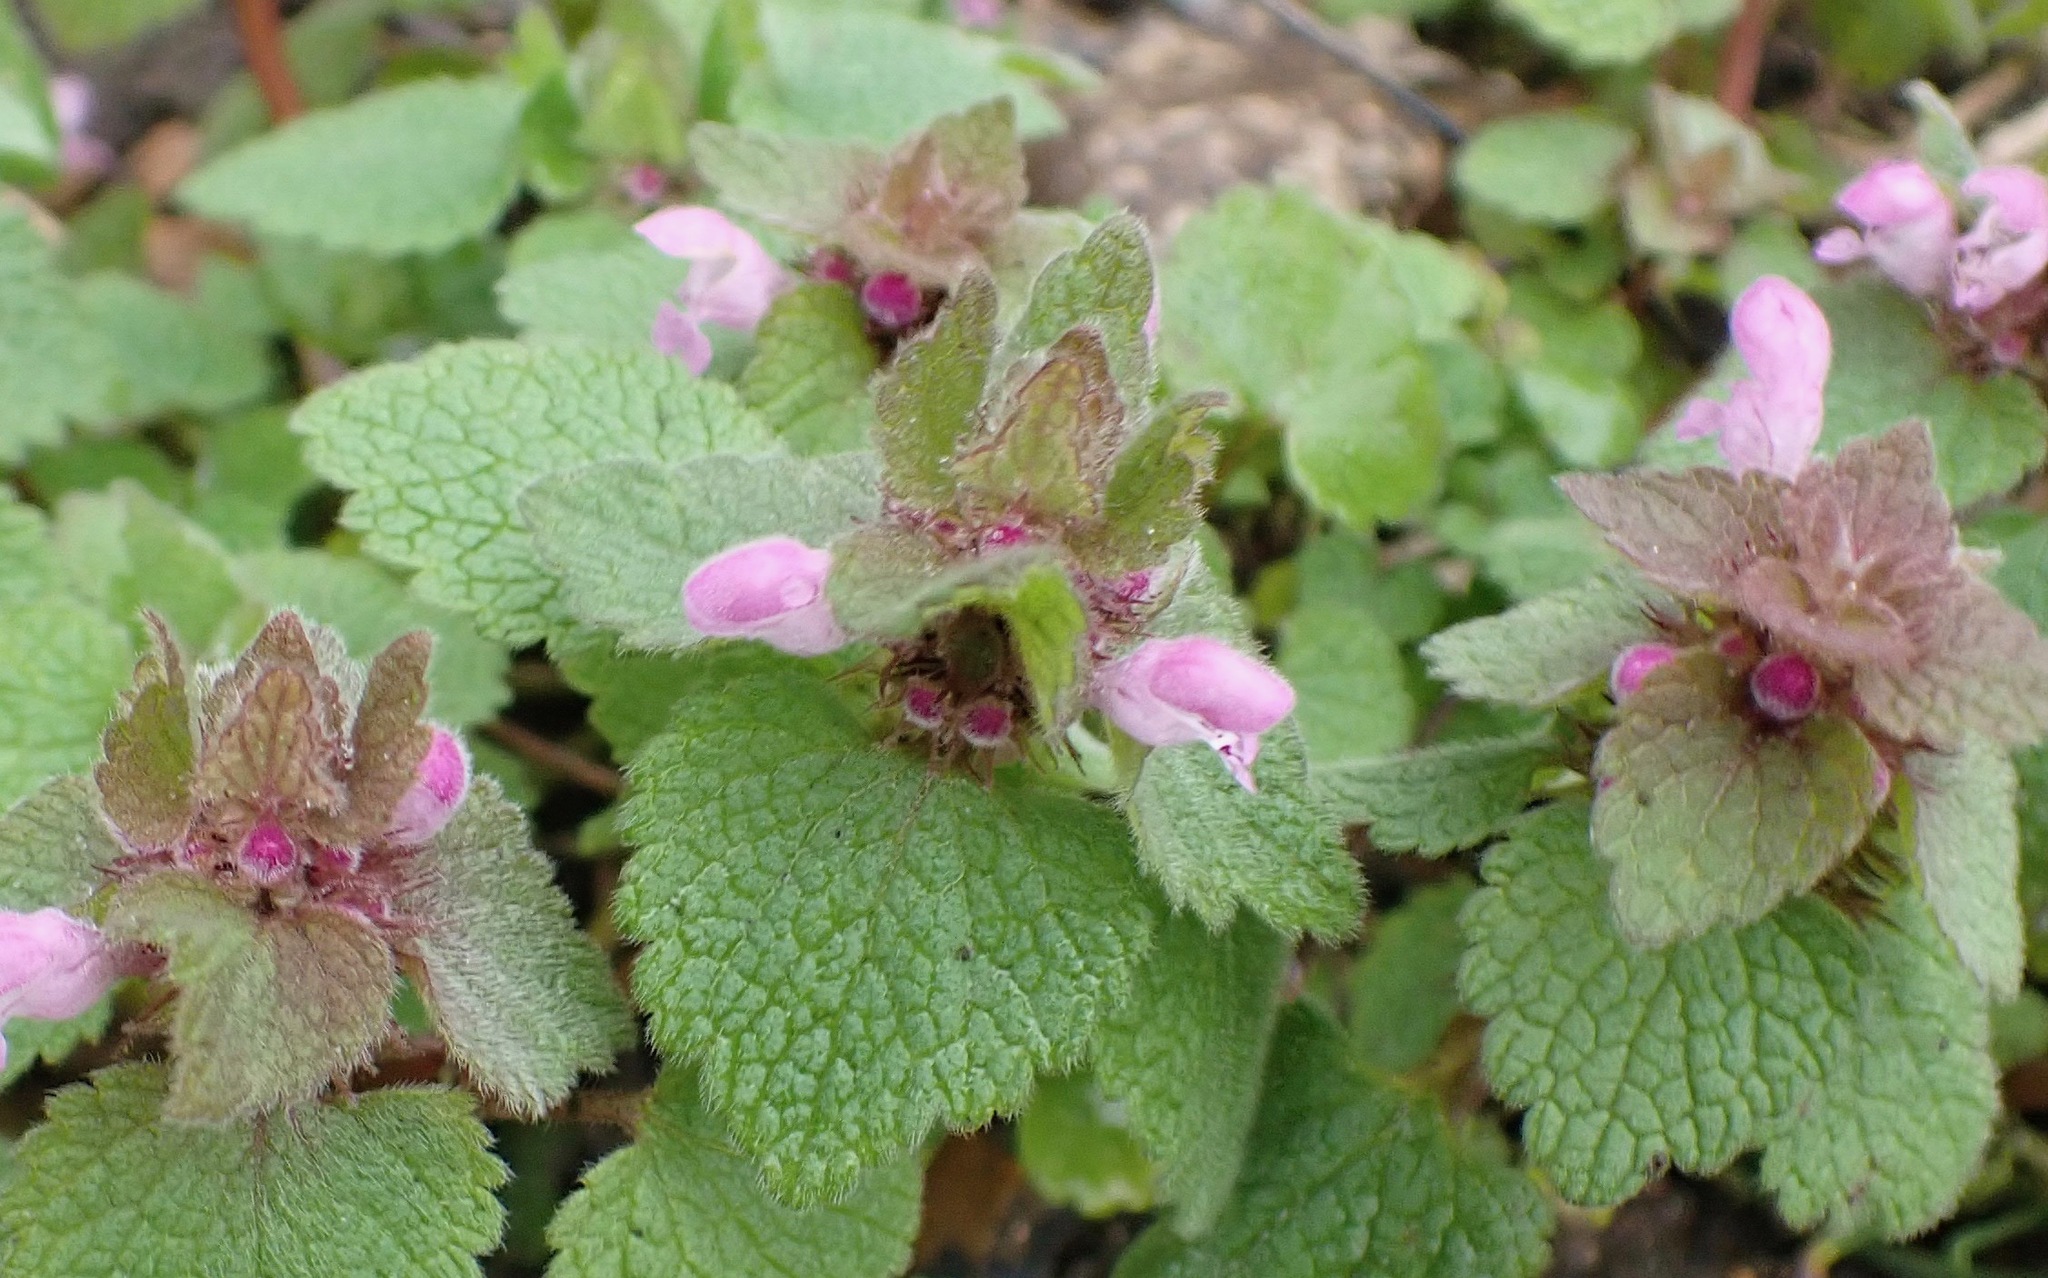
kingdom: Plantae
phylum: Tracheophyta
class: Magnoliopsida
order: Lamiales
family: Lamiaceae
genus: Lamium
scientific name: Lamium purpureum
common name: Red dead-nettle
